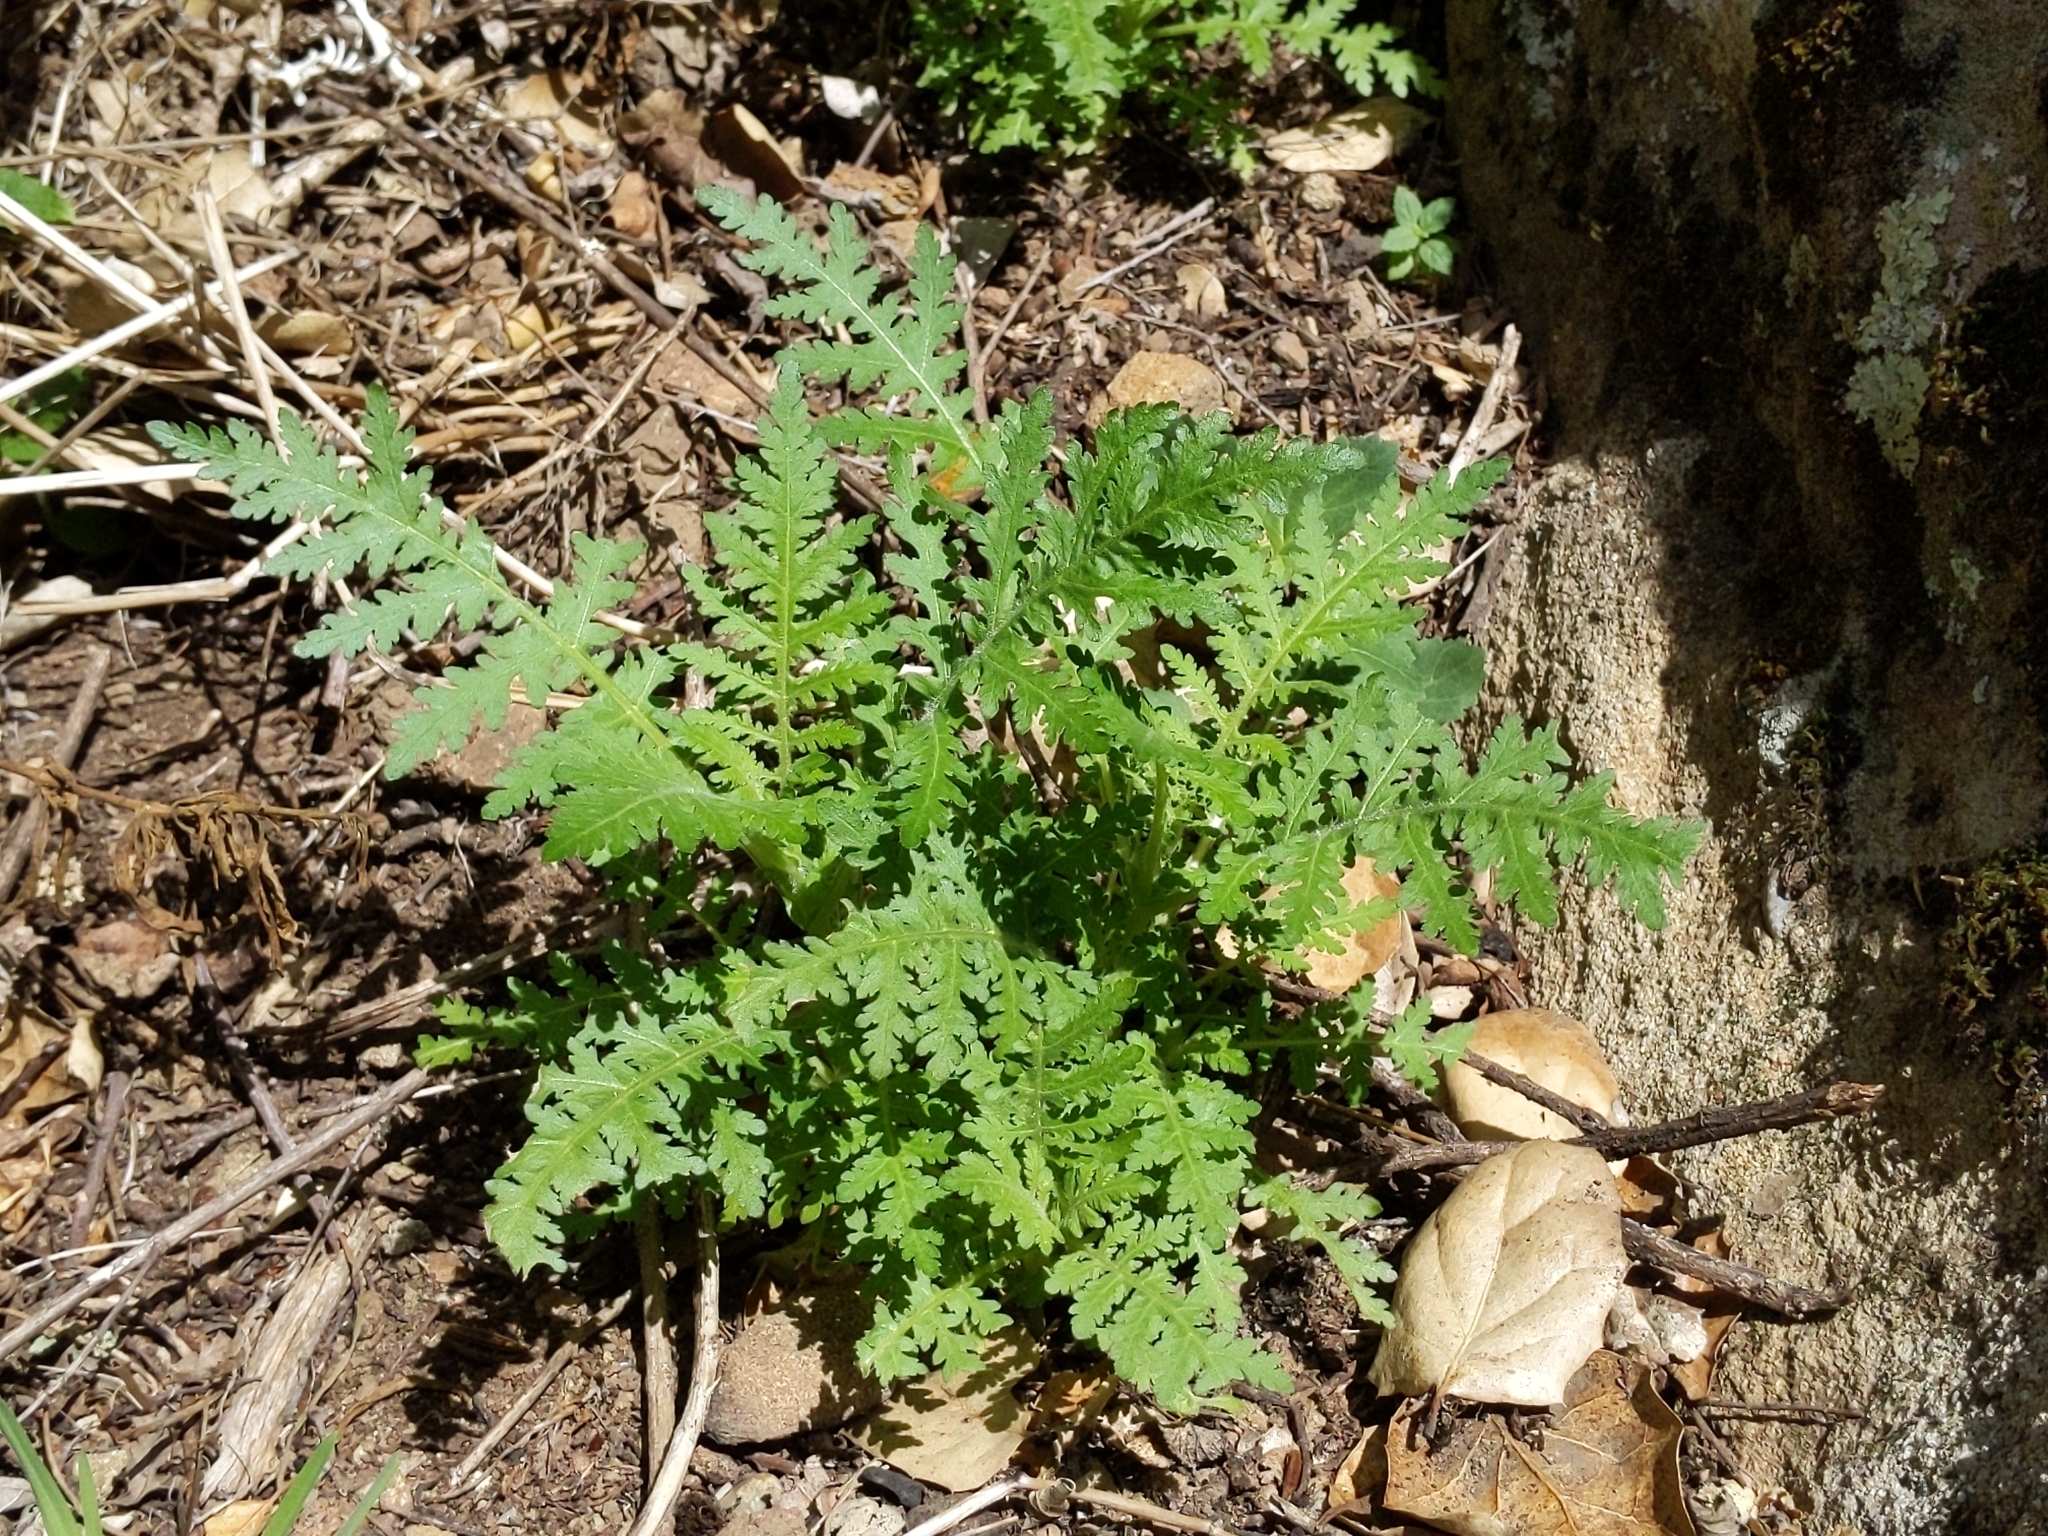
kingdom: Plantae
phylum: Tracheophyta
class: Magnoliopsida
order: Boraginales
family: Hydrophyllaceae
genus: Eucrypta
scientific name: Eucrypta chrysanthemifolia
